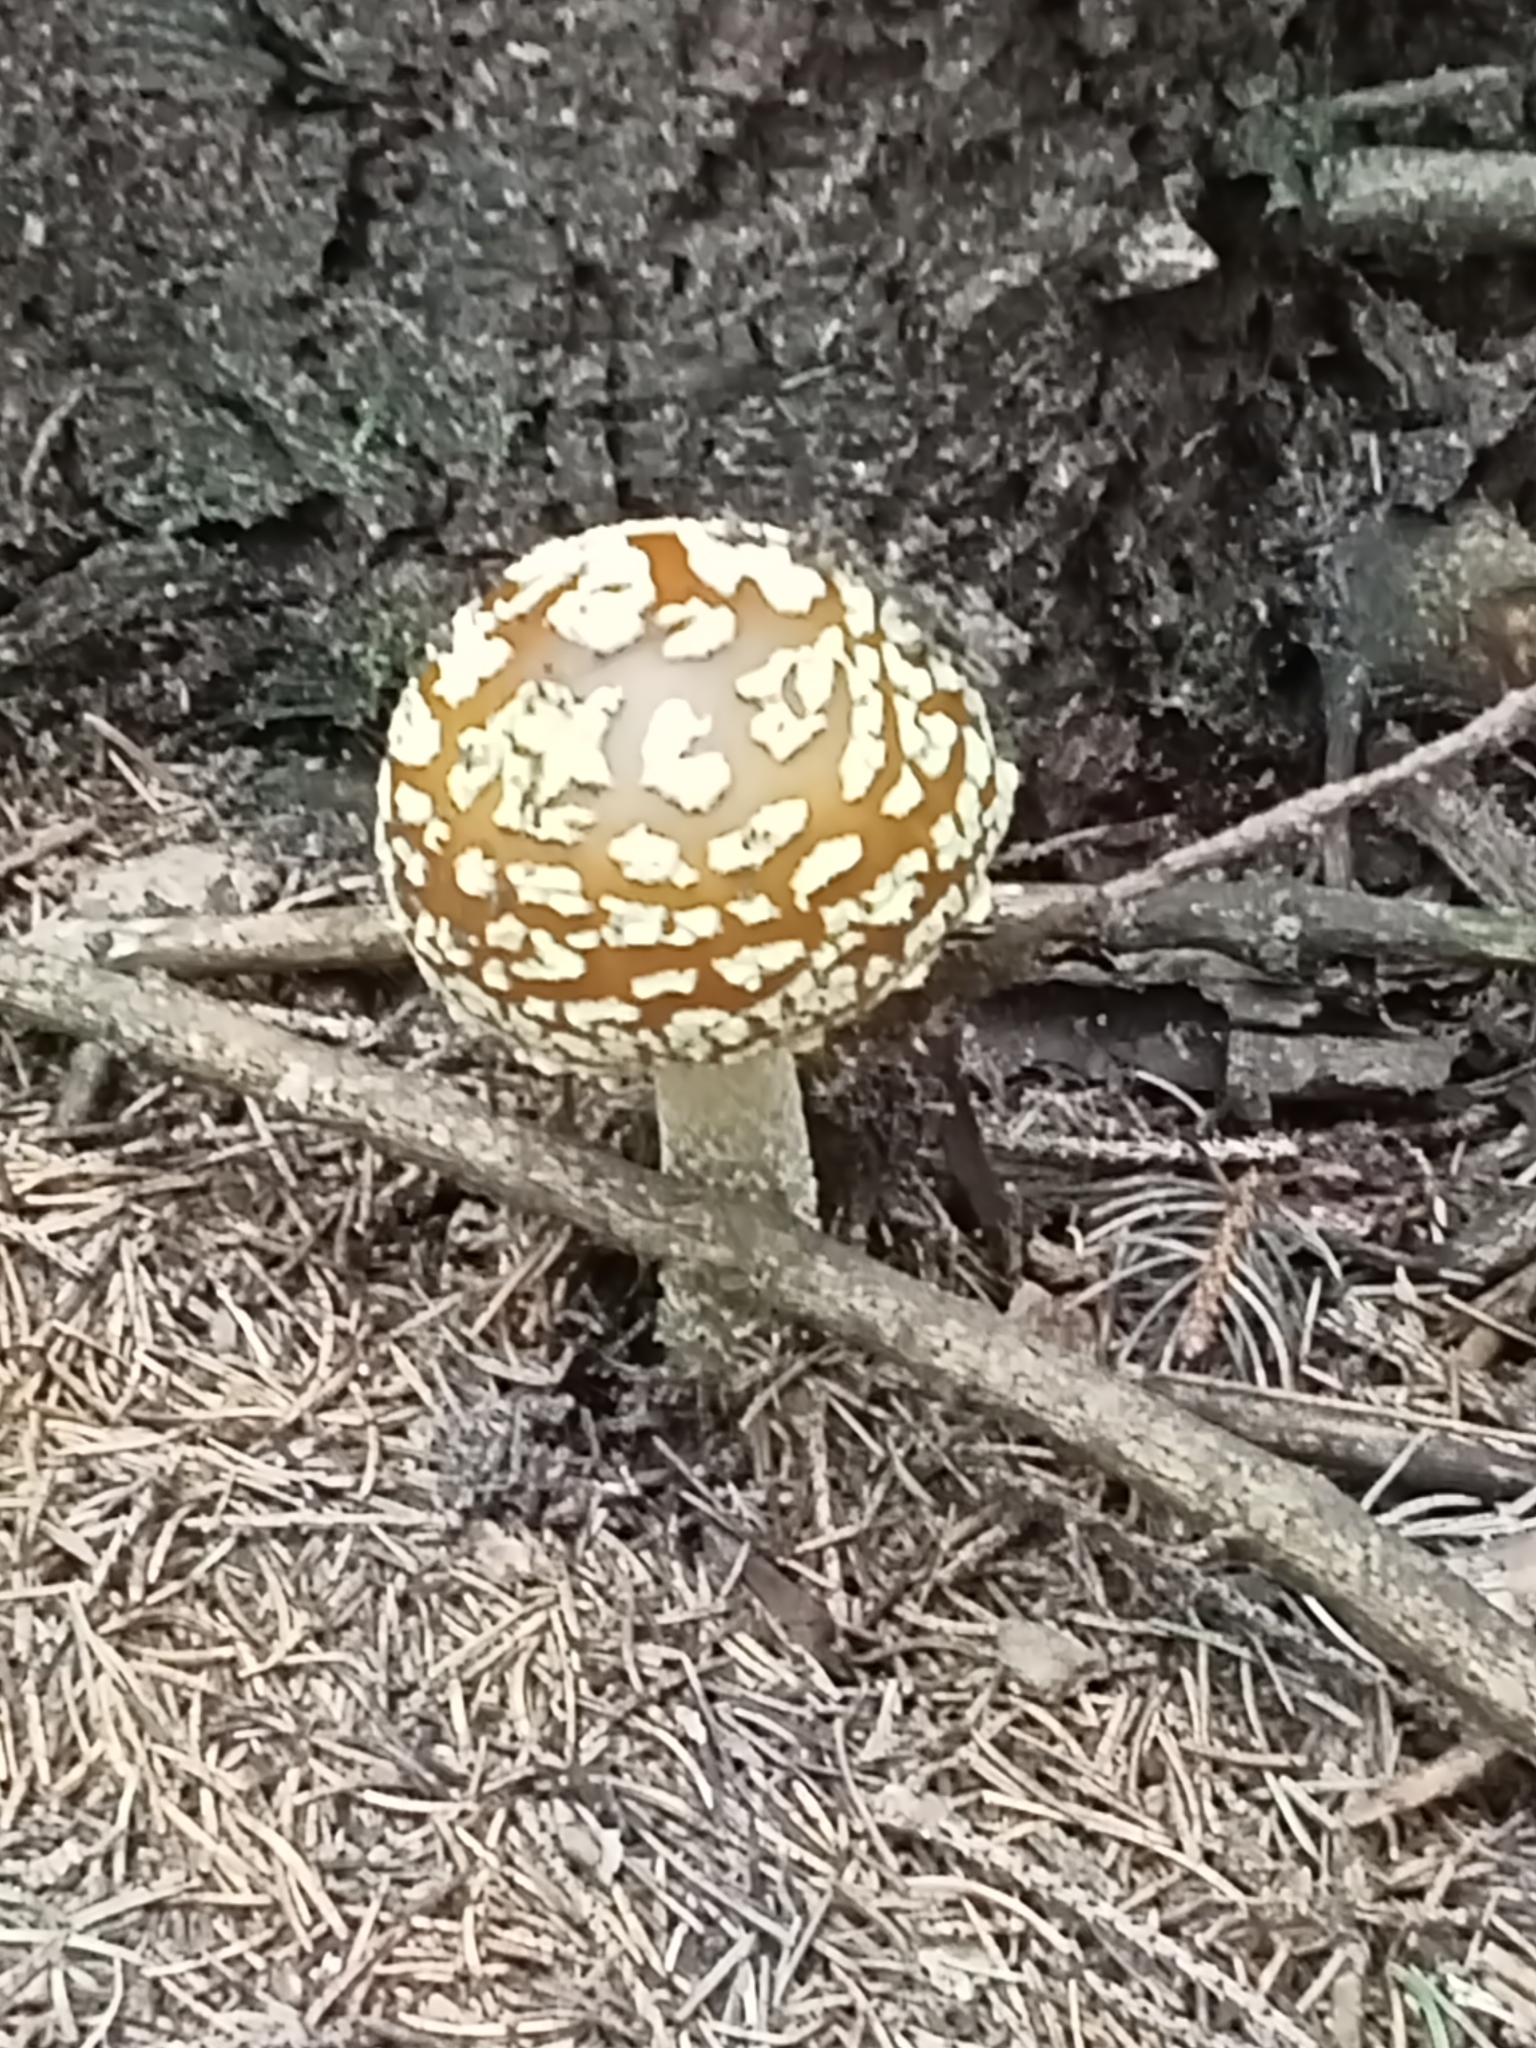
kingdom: Fungi
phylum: Basidiomycota
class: Agaricomycetes
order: Agaricales
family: Amanitaceae
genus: Amanita
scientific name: Amanita regalis
